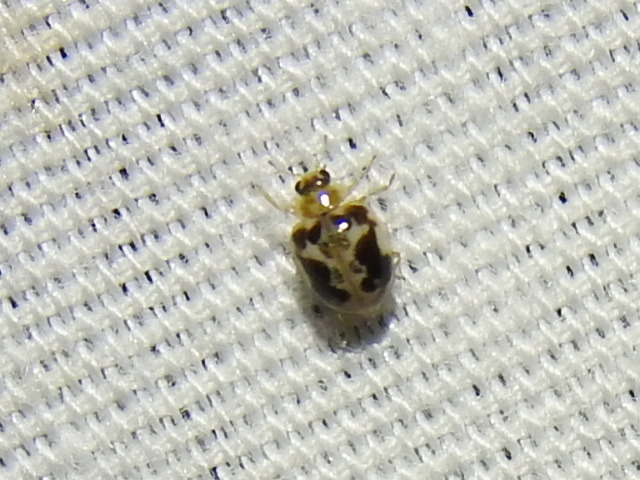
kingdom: Animalia
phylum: Arthropoda
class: Insecta
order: Coleoptera
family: Coccinellidae
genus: Psyllobora
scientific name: Psyllobora renifer
